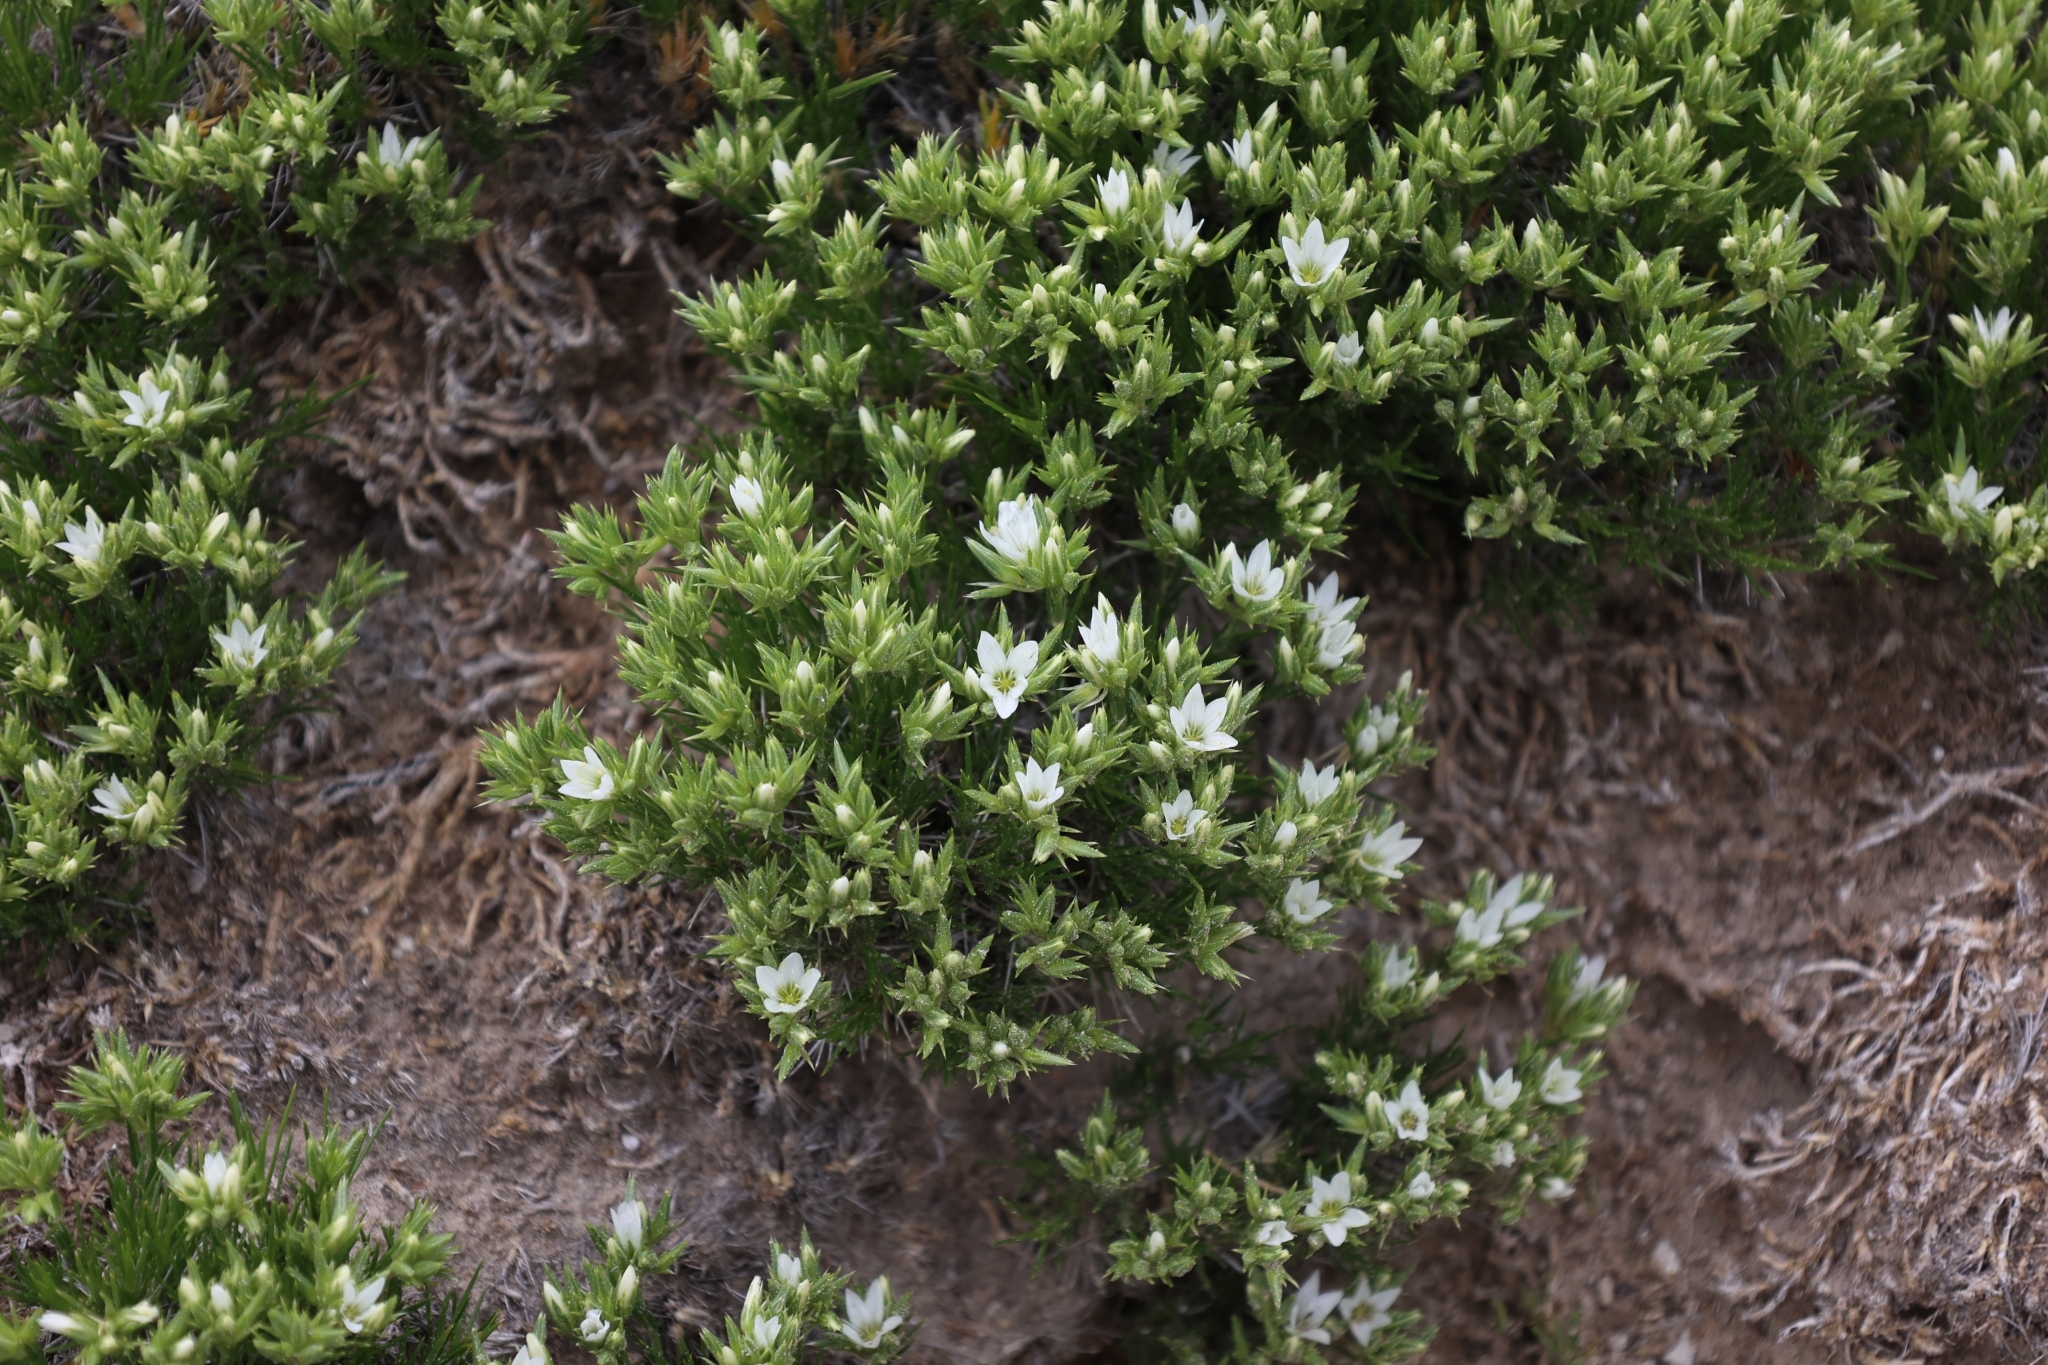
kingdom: Plantae
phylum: Tracheophyta
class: Magnoliopsida
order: Caryophyllales
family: Caryophyllaceae
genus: Eremogone
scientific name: Eremogone hookeri
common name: Hooker's sandwort
